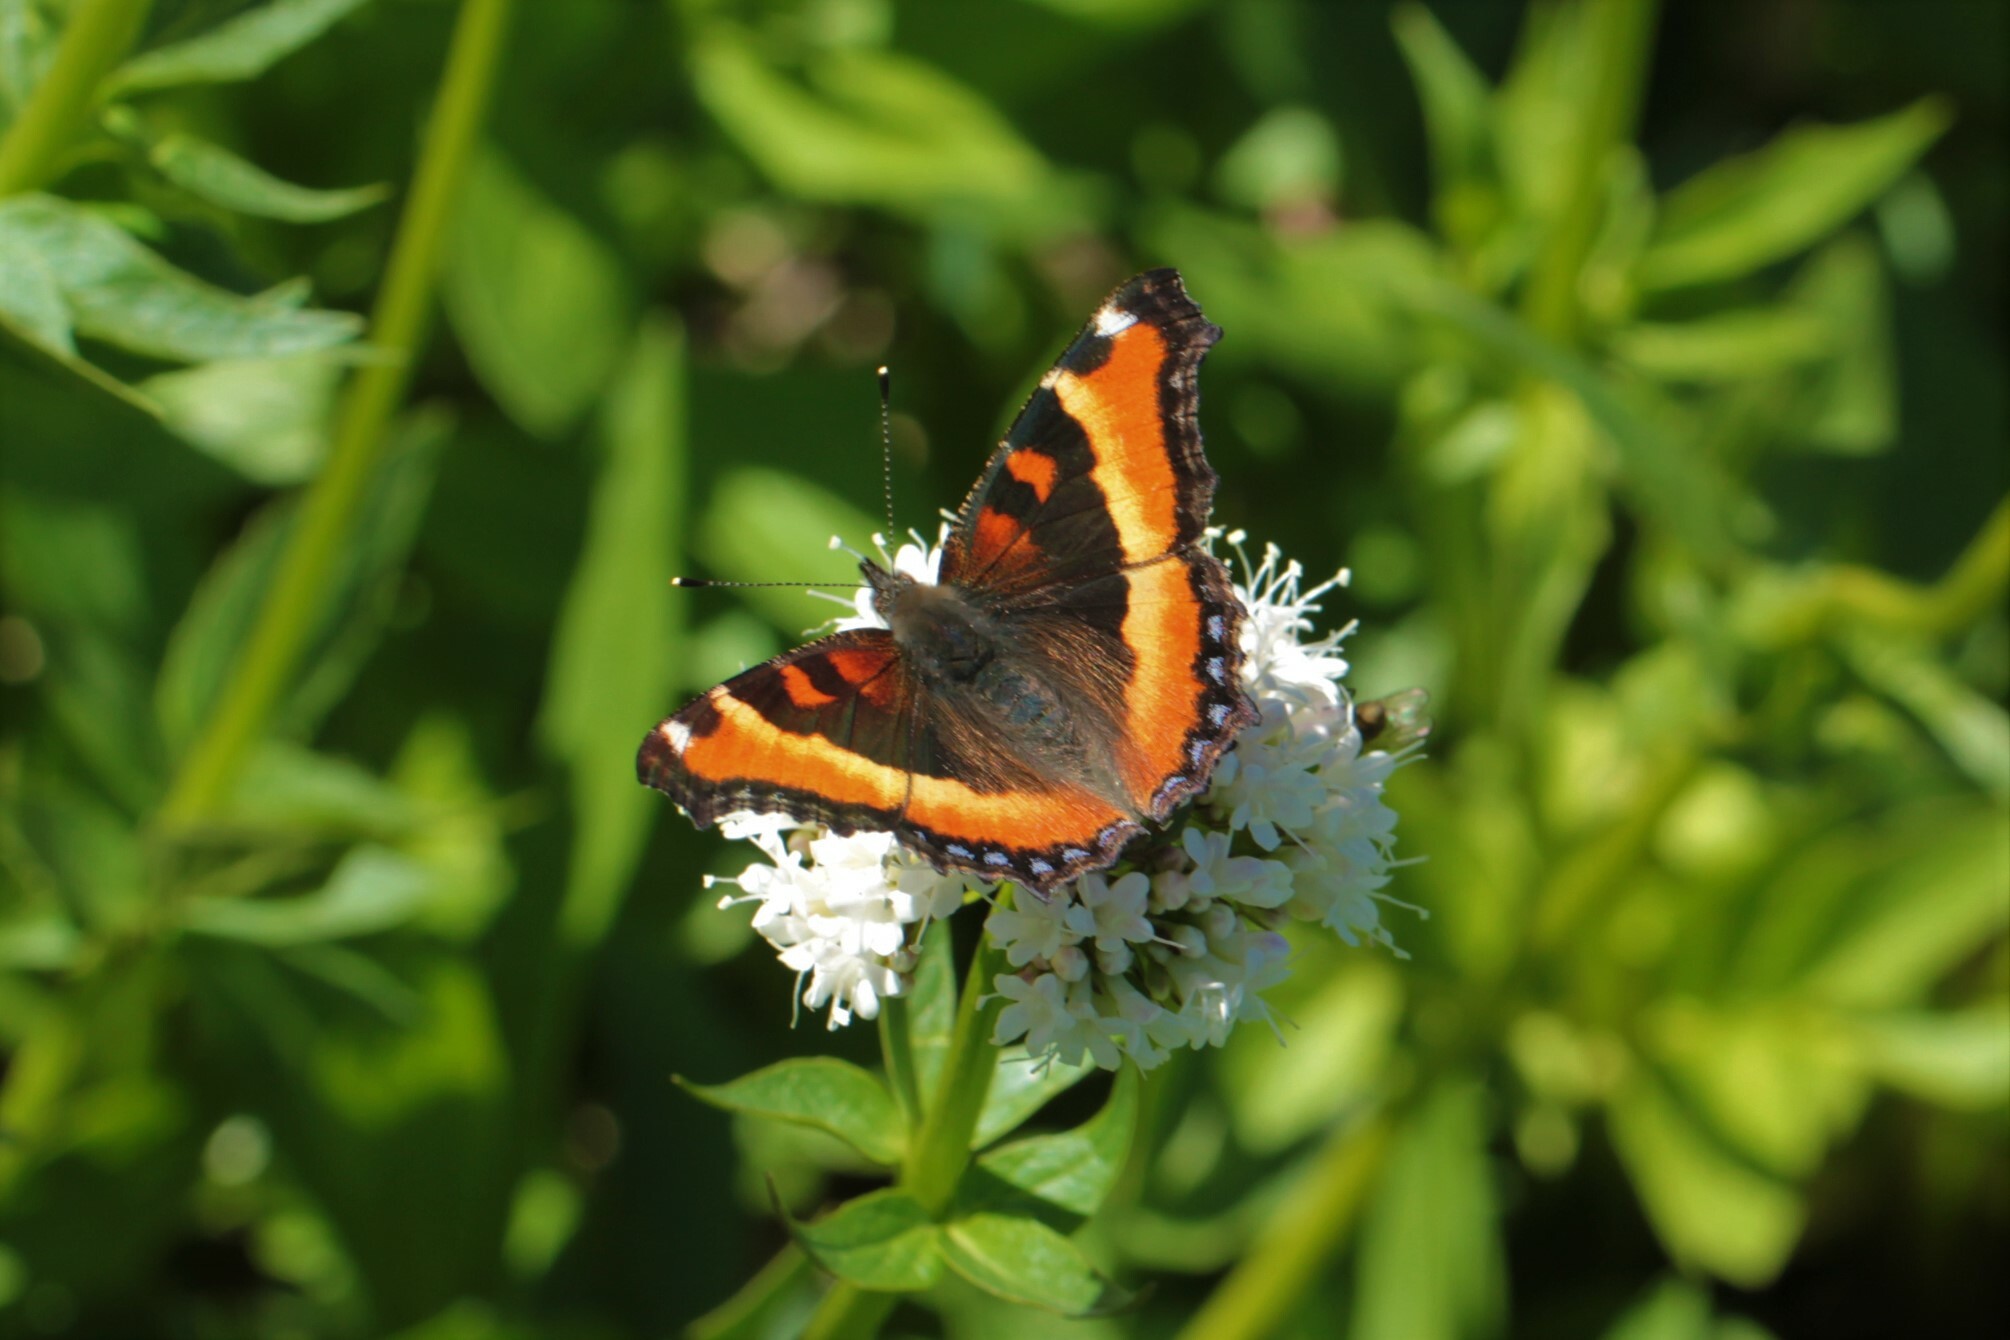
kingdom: Animalia
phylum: Arthropoda
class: Insecta
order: Lepidoptera
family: Nymphalidae
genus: Aglais
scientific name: Aglais milberti
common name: Milbert's tortoiseshell
